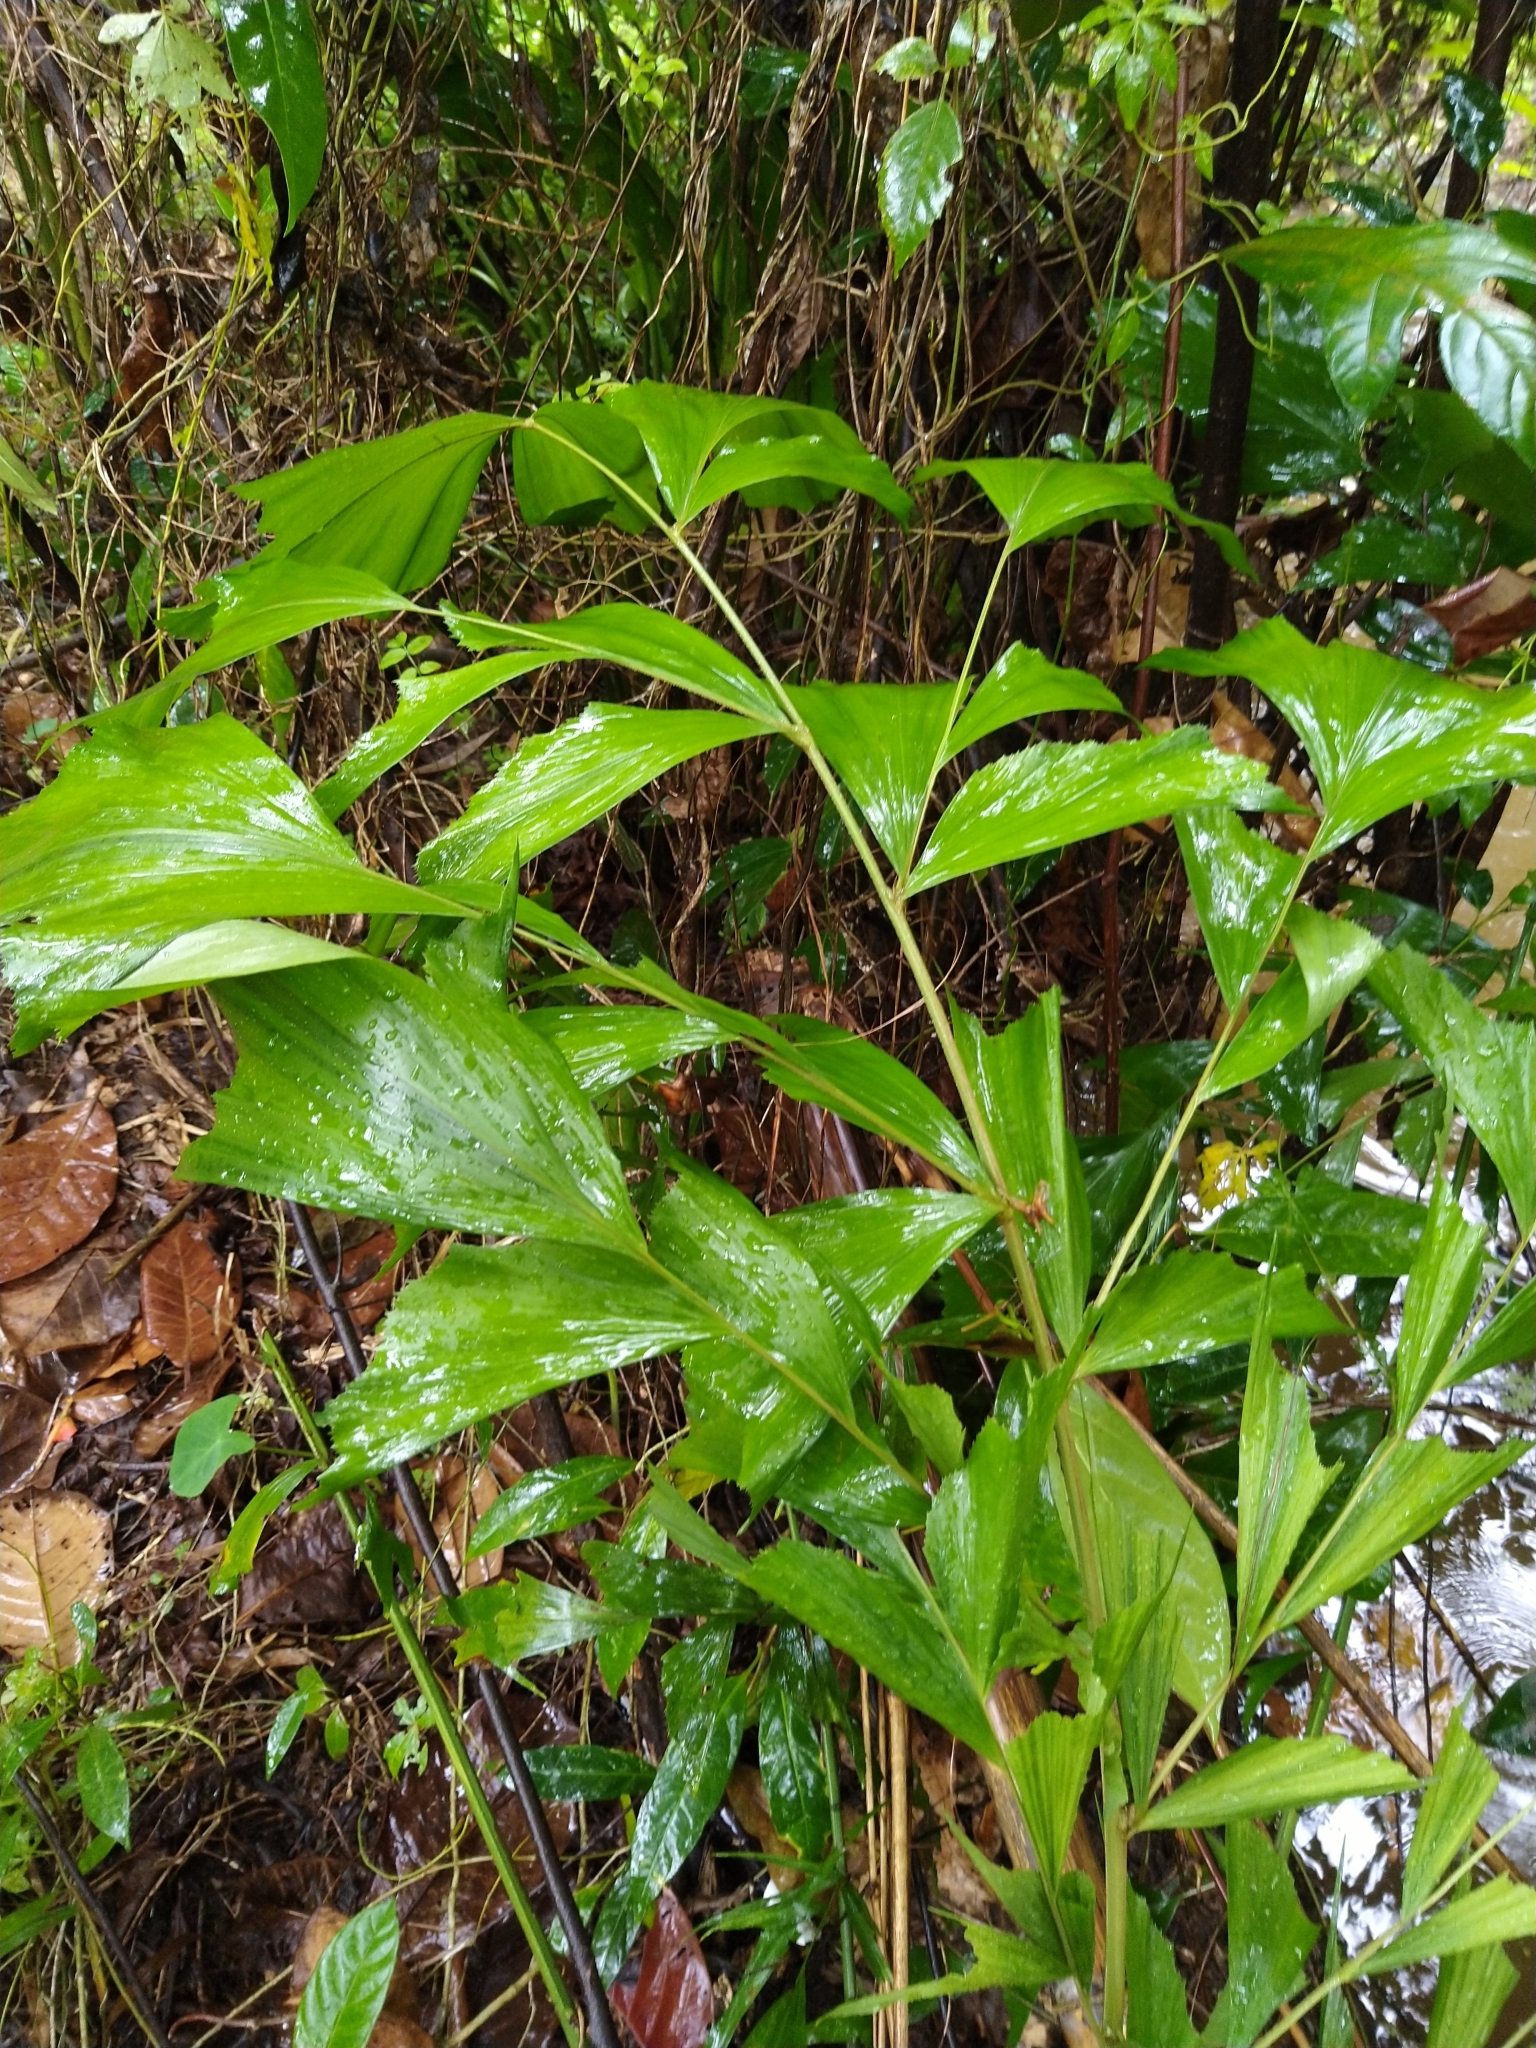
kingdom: Plantae
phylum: Tracheophyta
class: Liliopsida
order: Arecales
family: Arecaceae
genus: Caryota
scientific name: Caryota urens
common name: Jaggery palm
